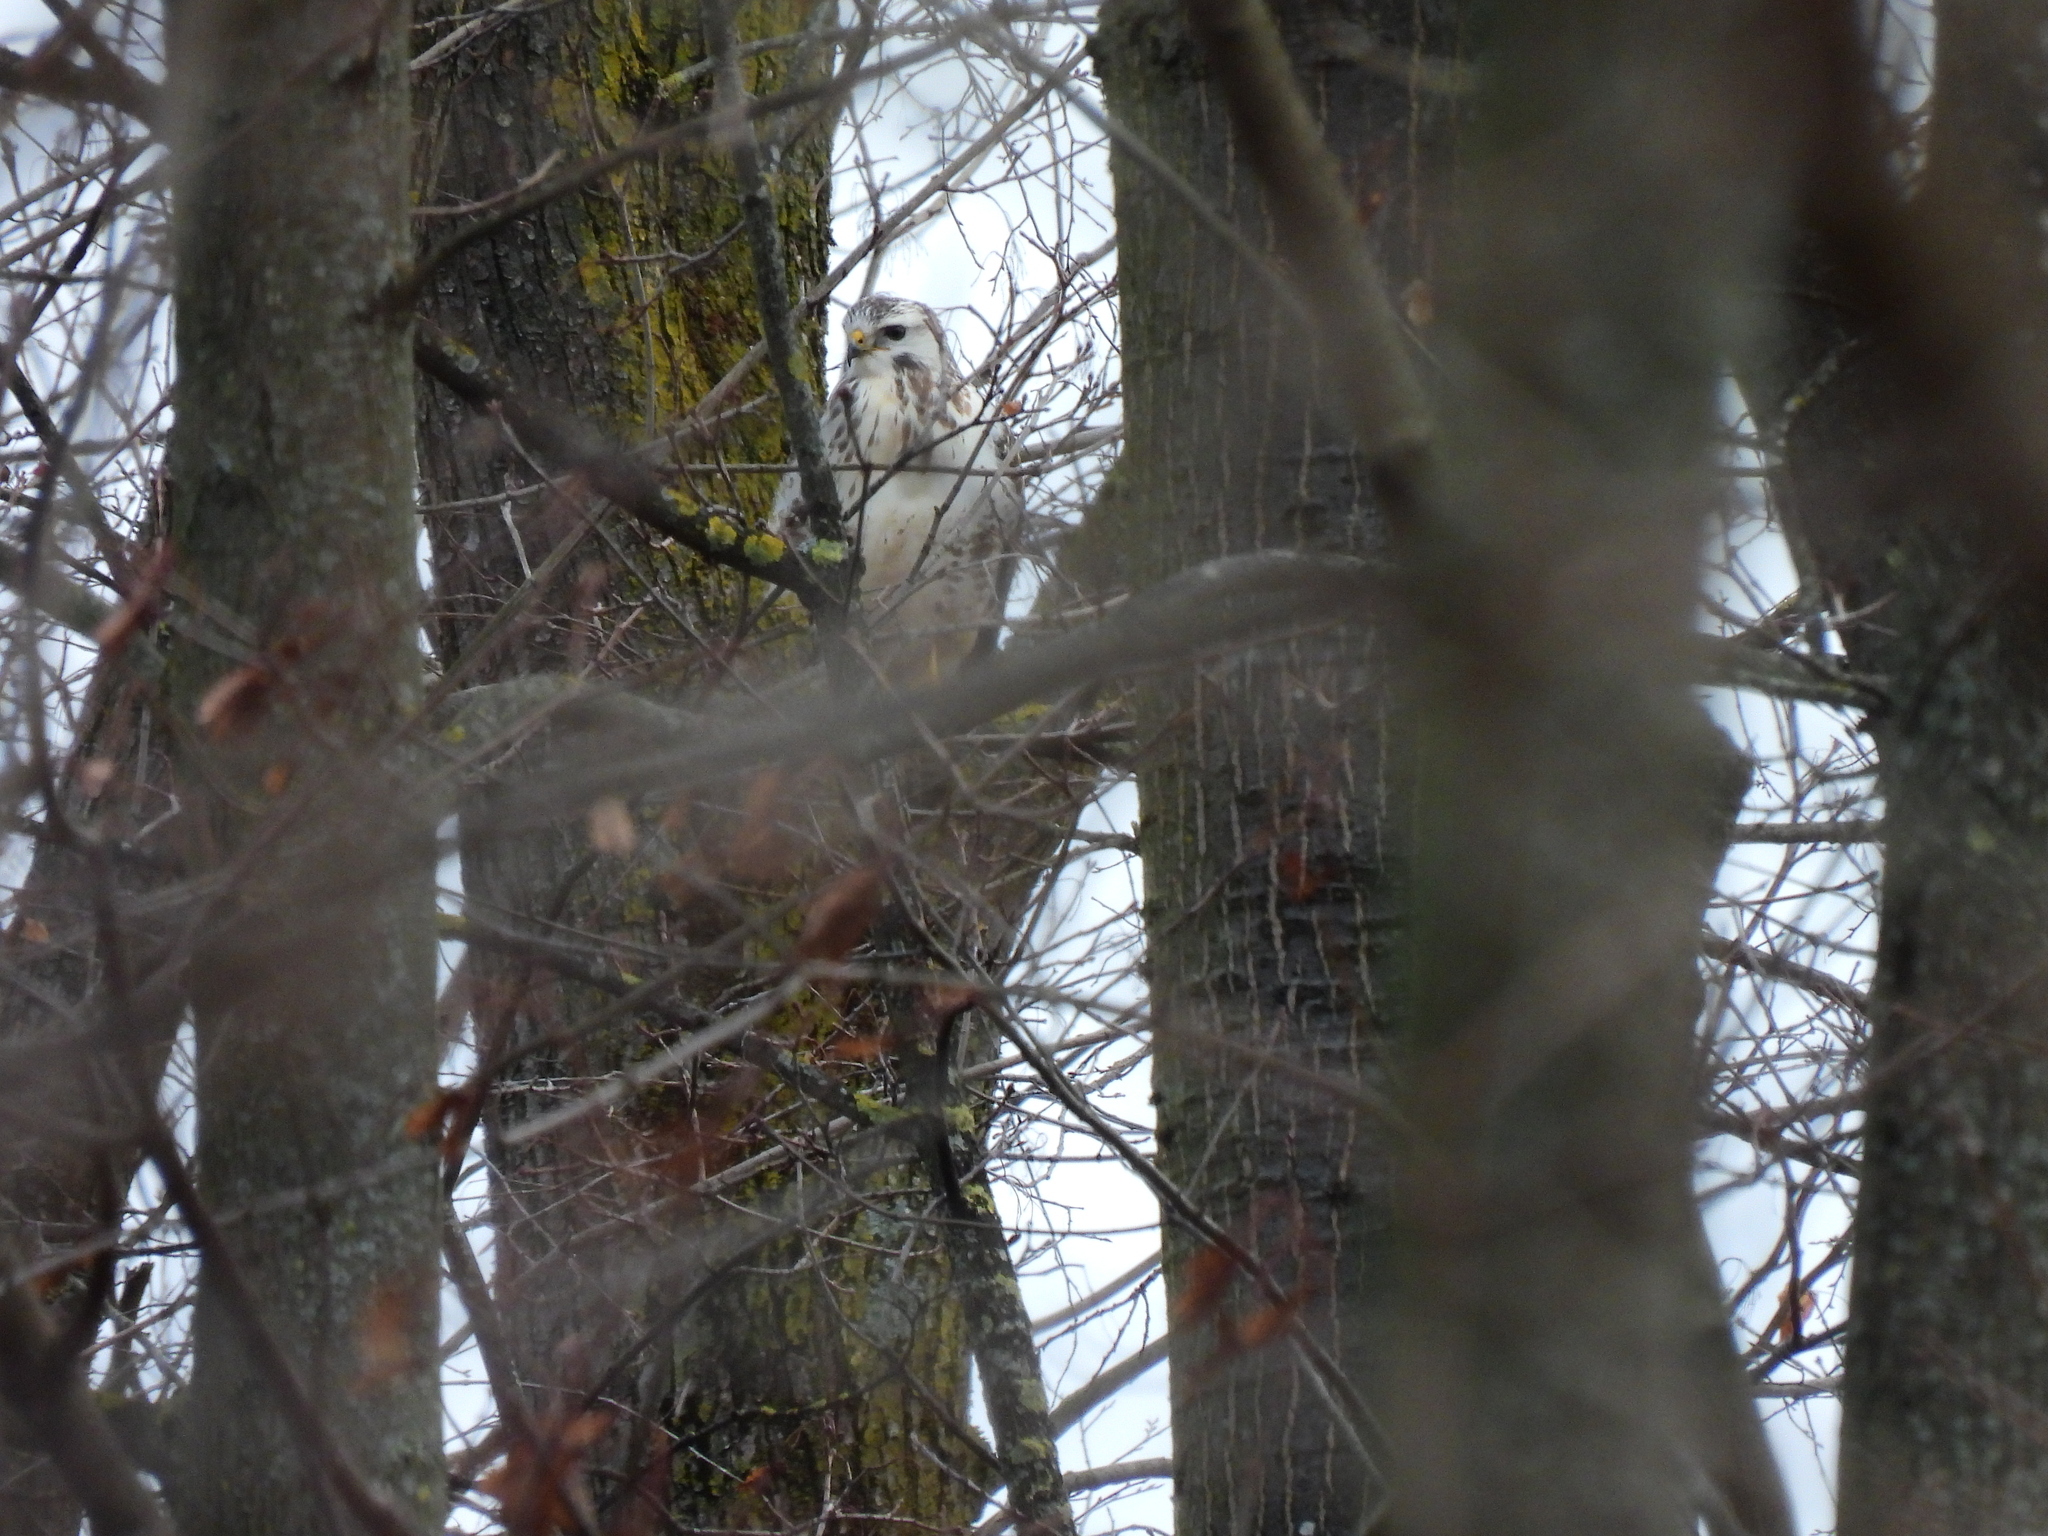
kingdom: Animalia
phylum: Chordata
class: Aves
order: Accipitriformes
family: Accipitridae
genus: Buteo
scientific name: Buteo buteo
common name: Common buzzard
